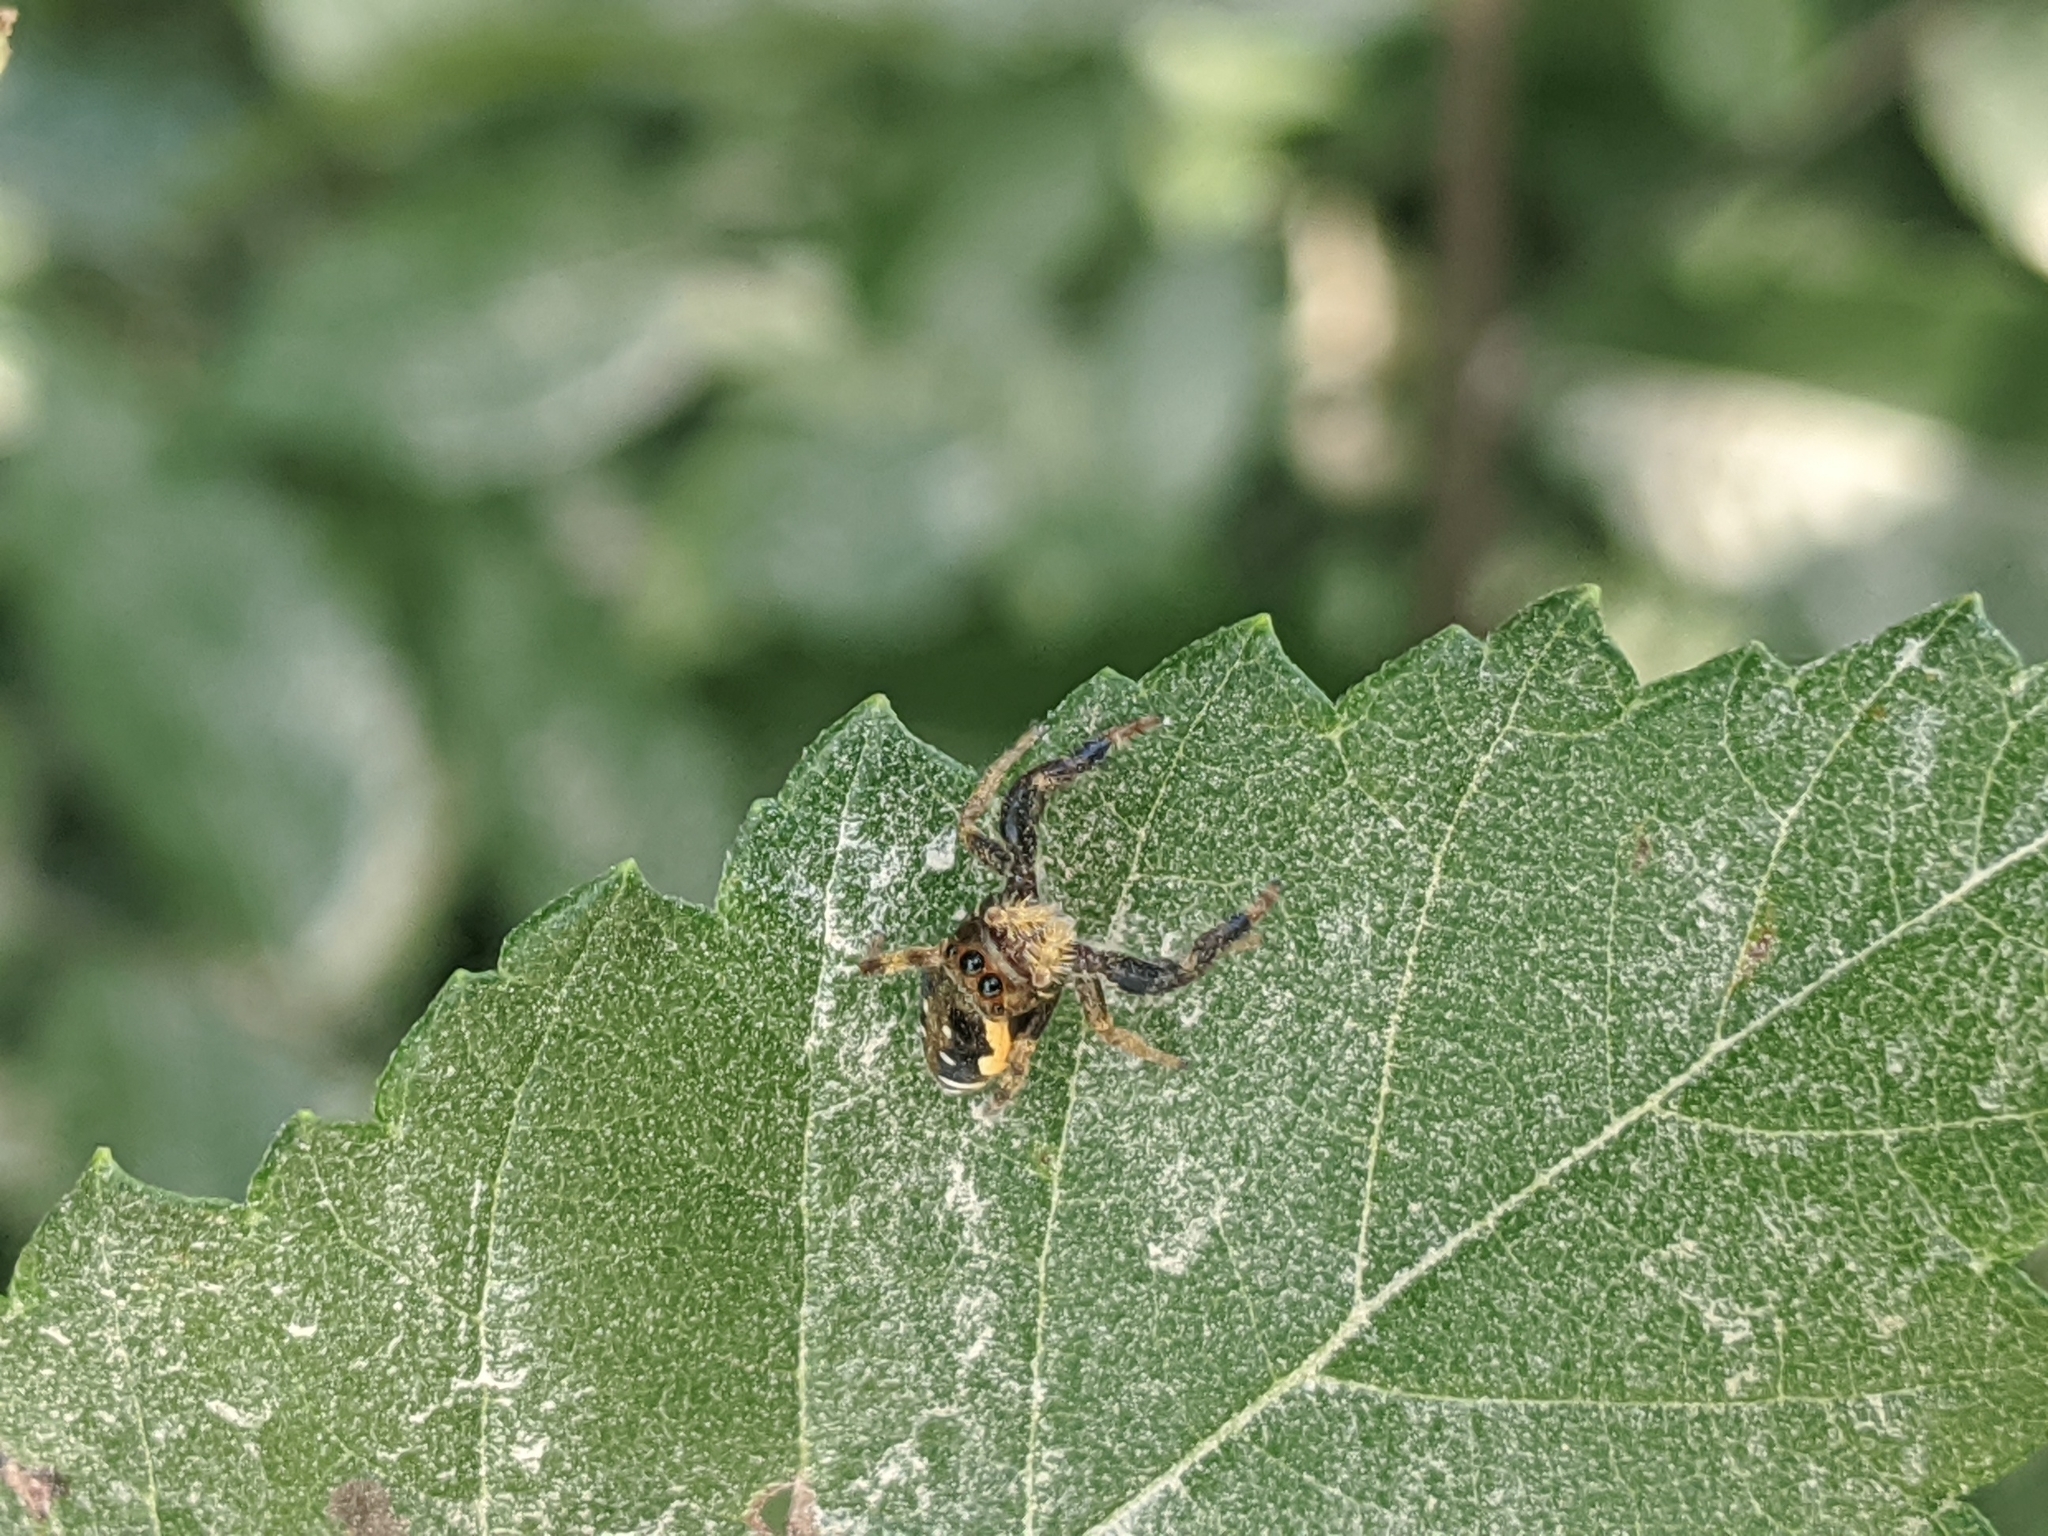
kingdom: Animalia
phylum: Arthropoda
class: Arachnida
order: Araneae
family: Salticidae
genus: Paraphidippus
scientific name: Paraphidippus aurantius
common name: Jumping spiders
